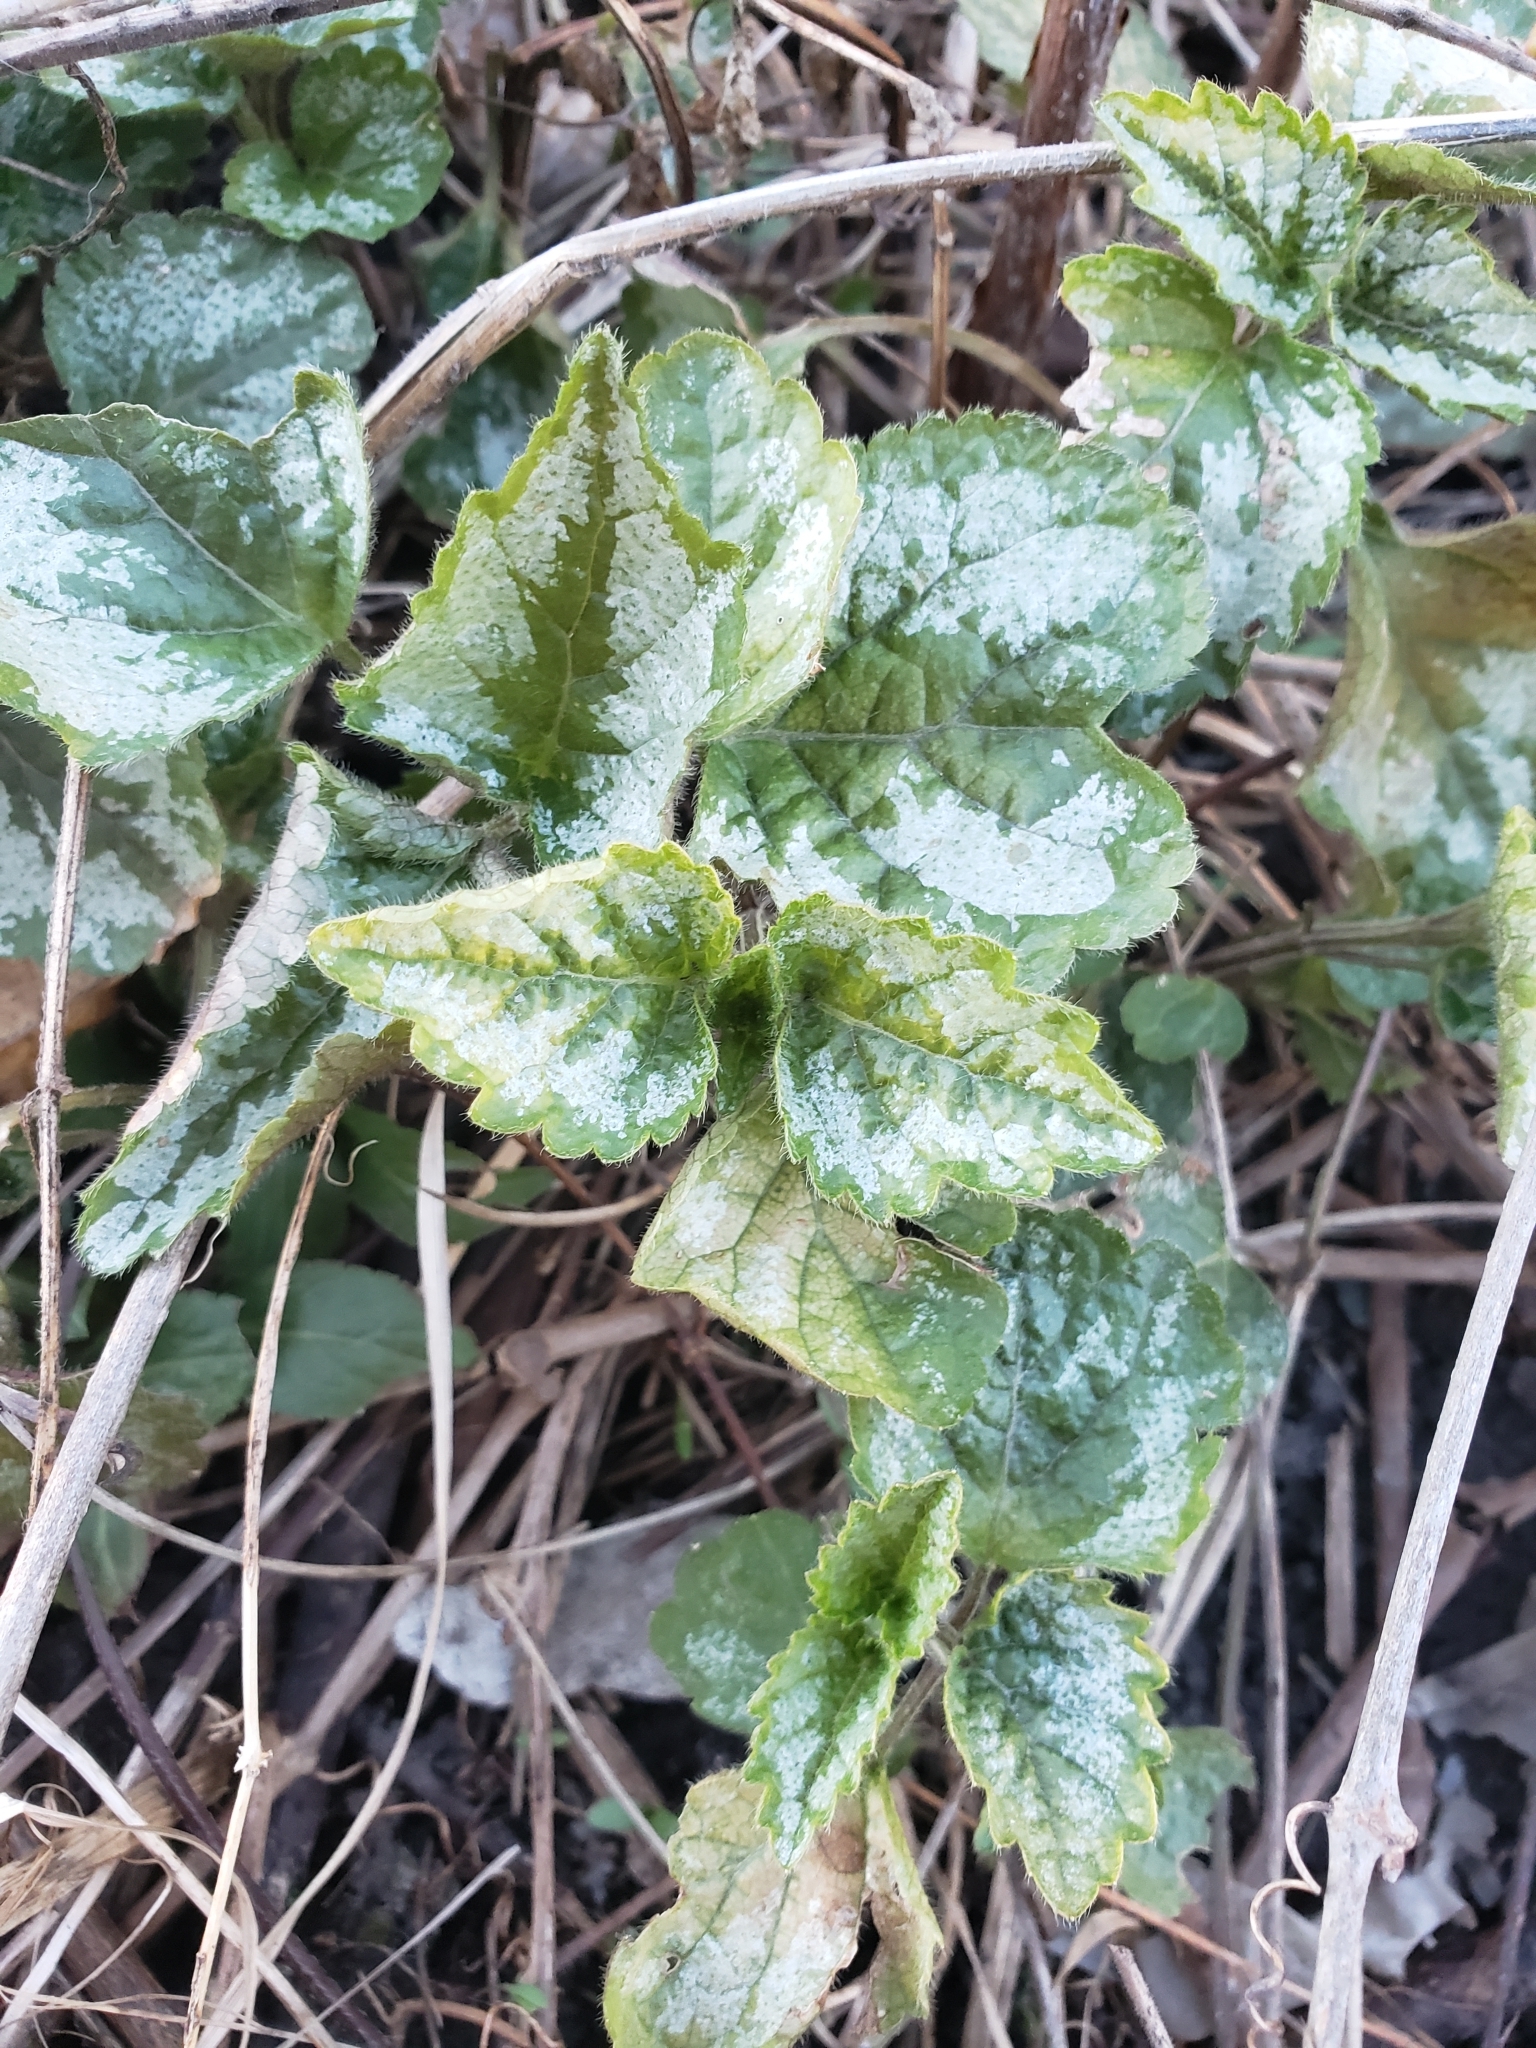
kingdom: Plantae
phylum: Tracheophyta
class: Magnoliopsida
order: Lamiales
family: Lamiaceae
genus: Lamium
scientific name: Lamium galeobdolon
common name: Yellow archangel
